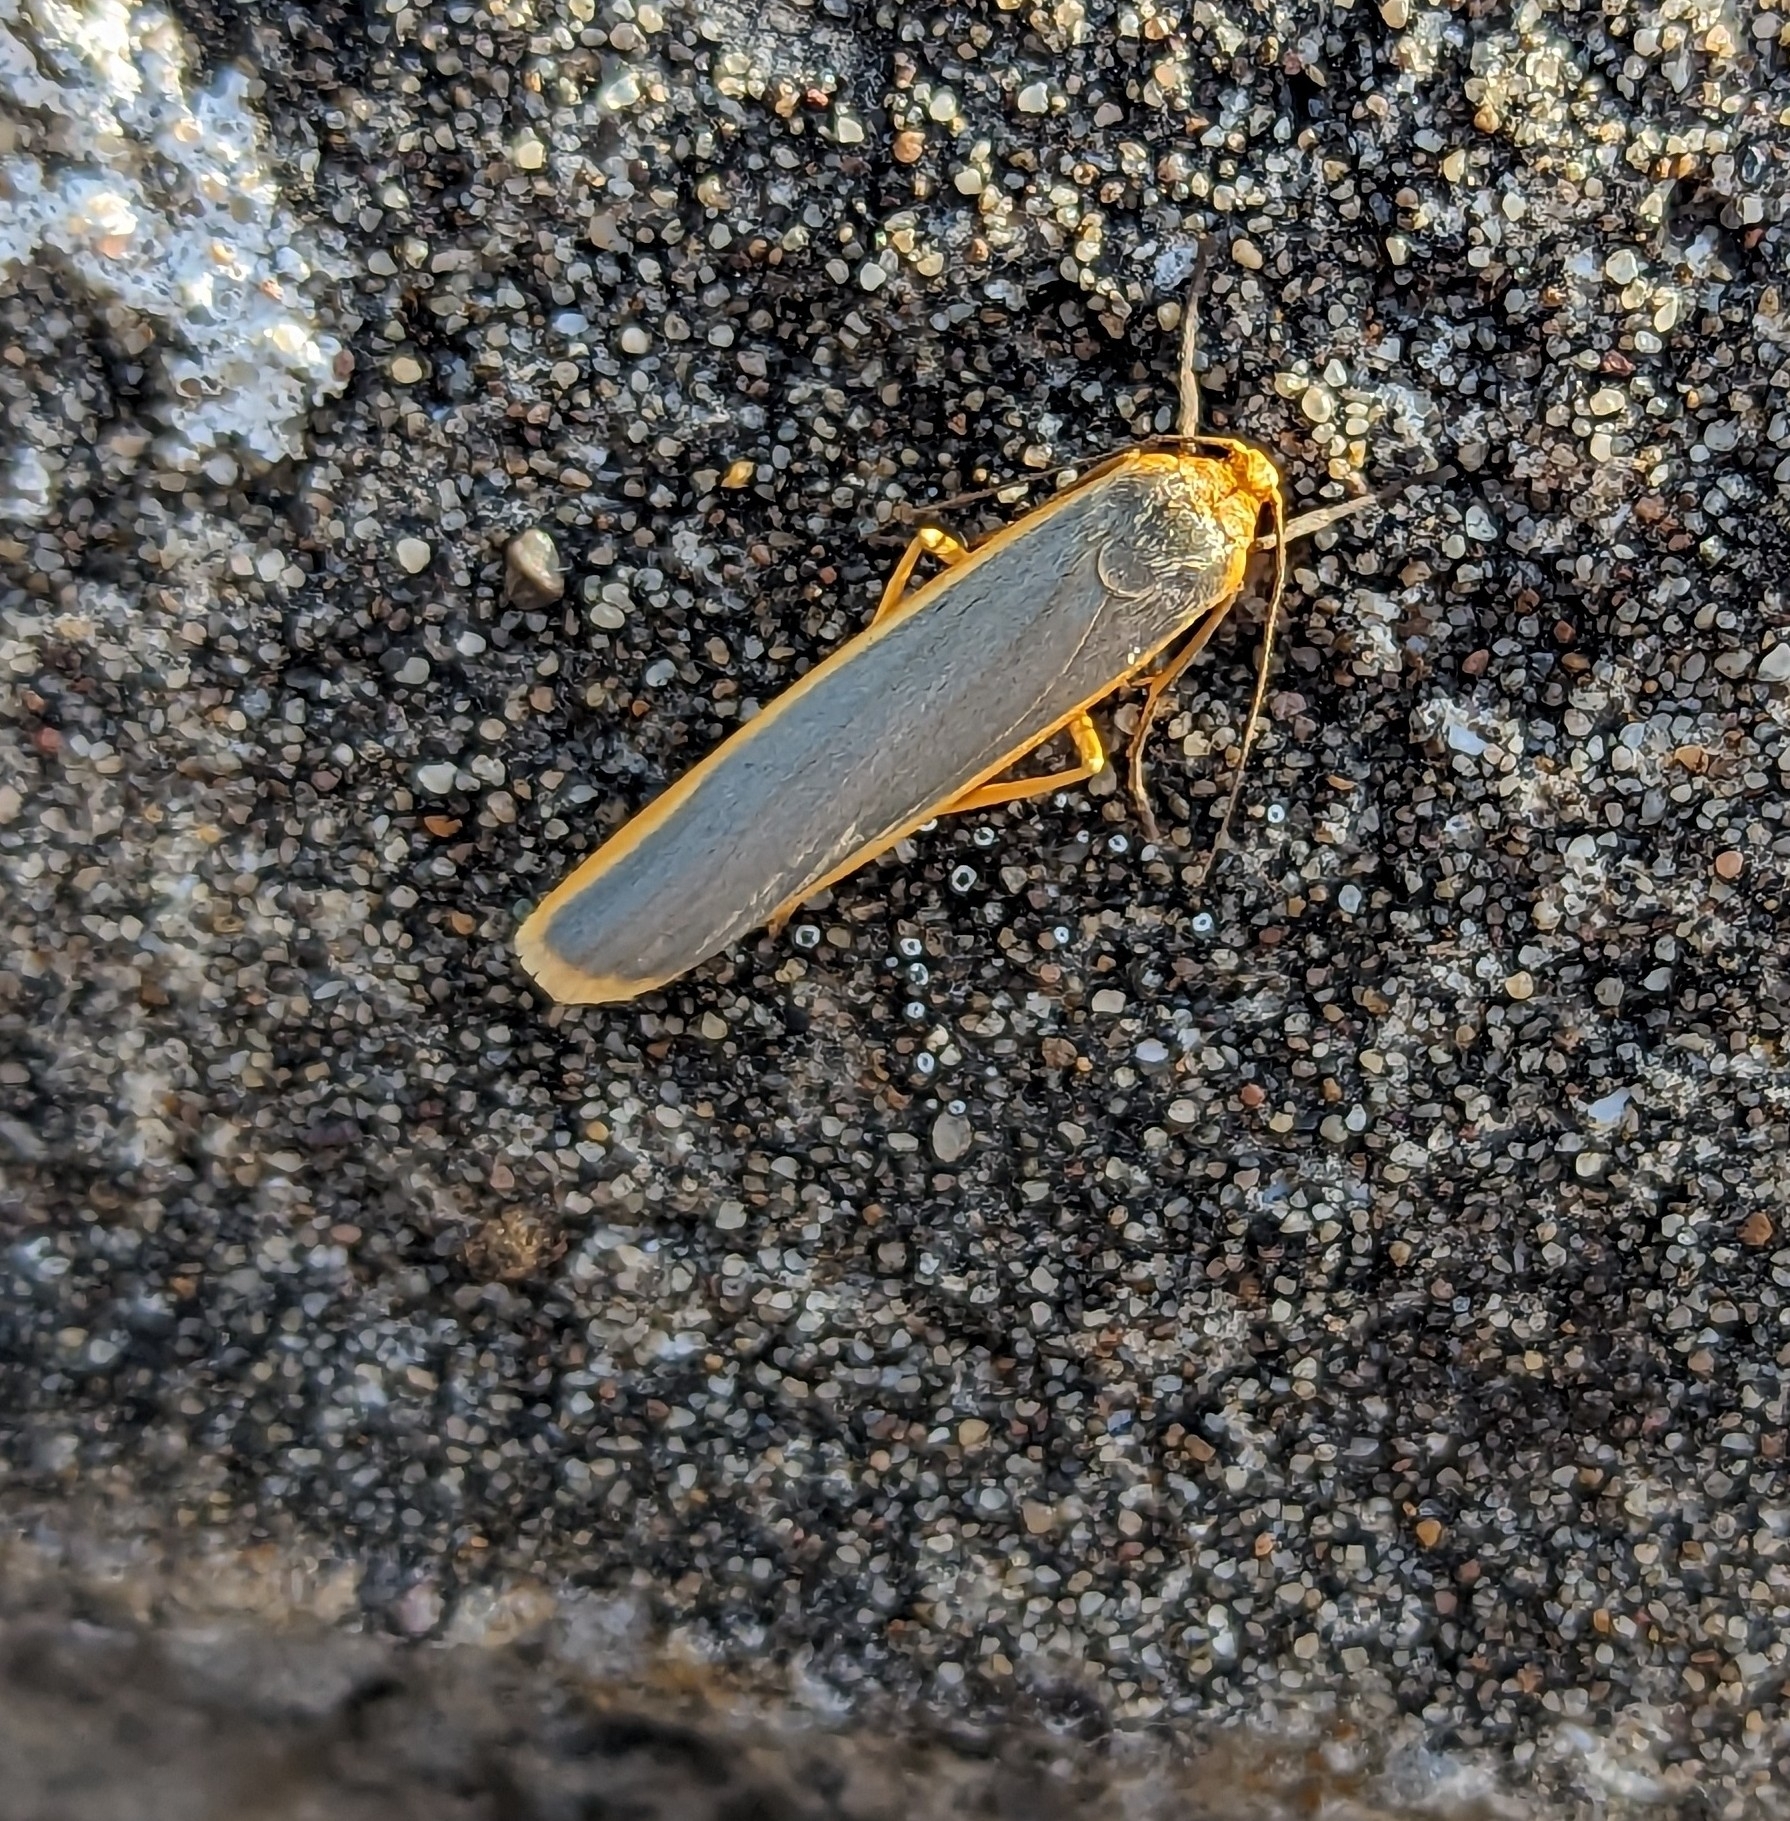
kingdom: Animalia
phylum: Arthropoda
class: Insecta
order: Lepidoptera
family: Erebidae
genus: Manulea
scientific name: Manulea complana
